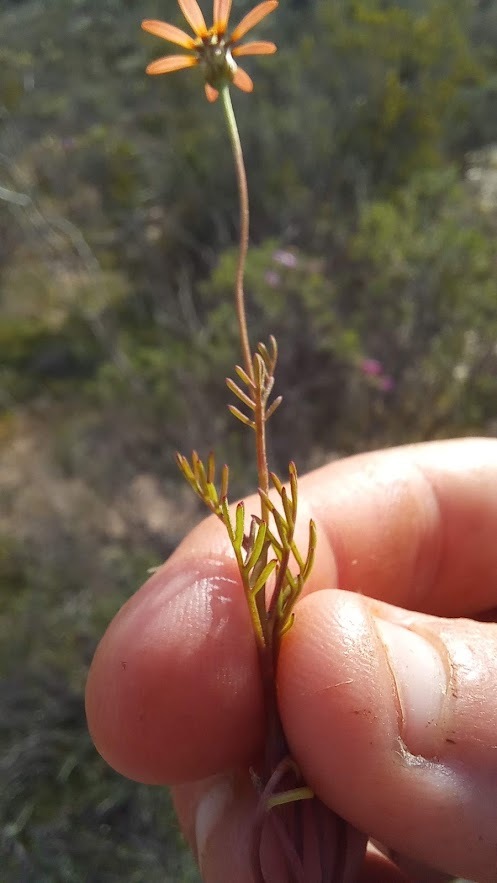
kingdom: Plantae
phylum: Tracheophyta
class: Magnoliopsida
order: Asterales
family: Asteraceae
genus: Ursinia
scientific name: Ursinia anthemoides
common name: Ursinia
